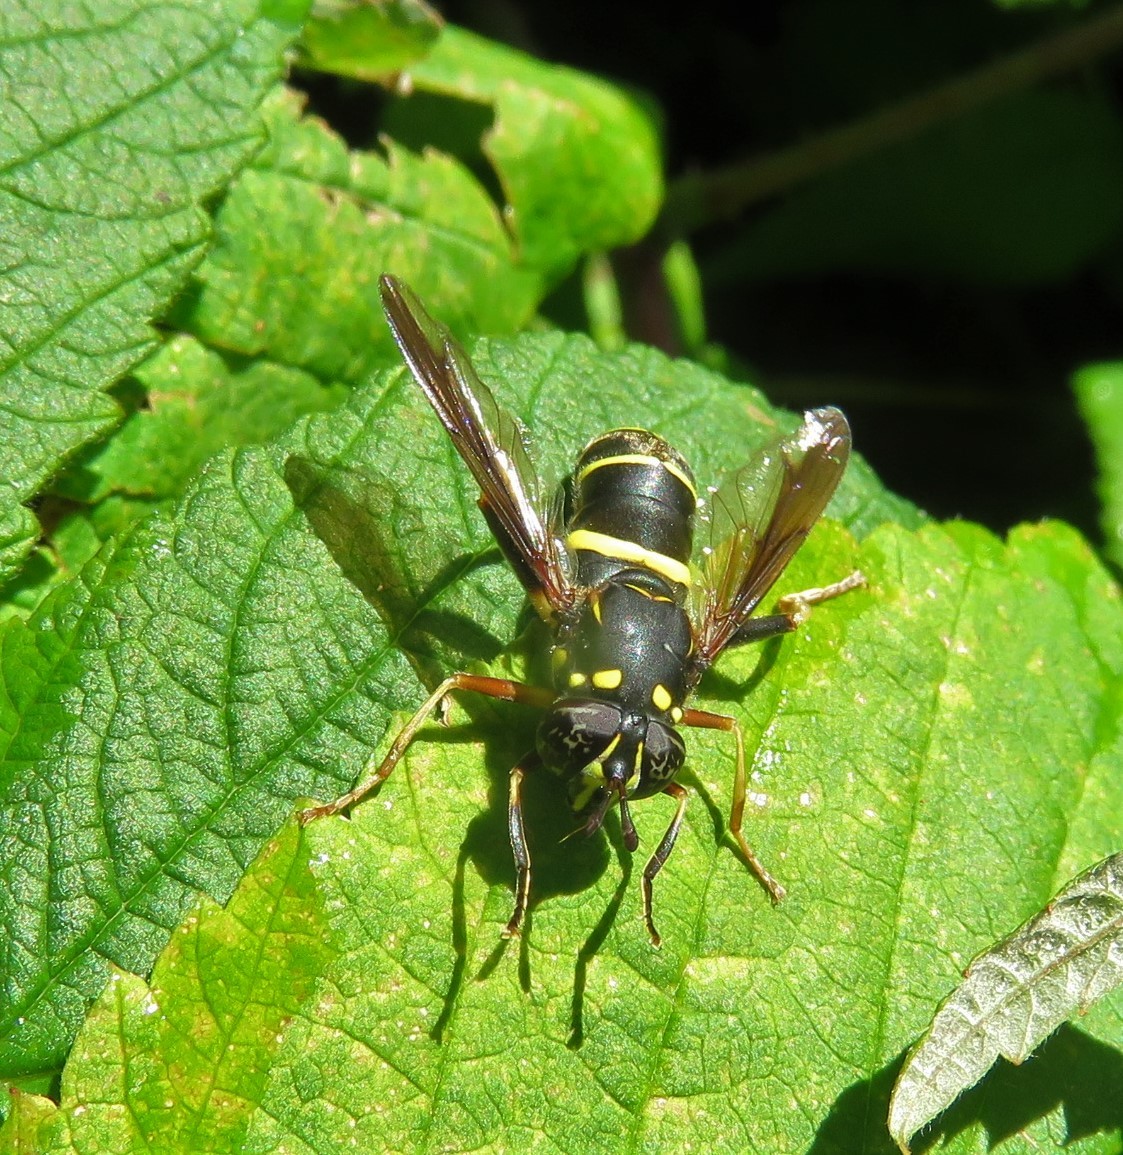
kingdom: Animalia
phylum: Arthropoda
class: Insecta
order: Diptera
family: Syrphidae
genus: Spilomyia
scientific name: Spilomyia sayi
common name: Four-lined hornet fly
